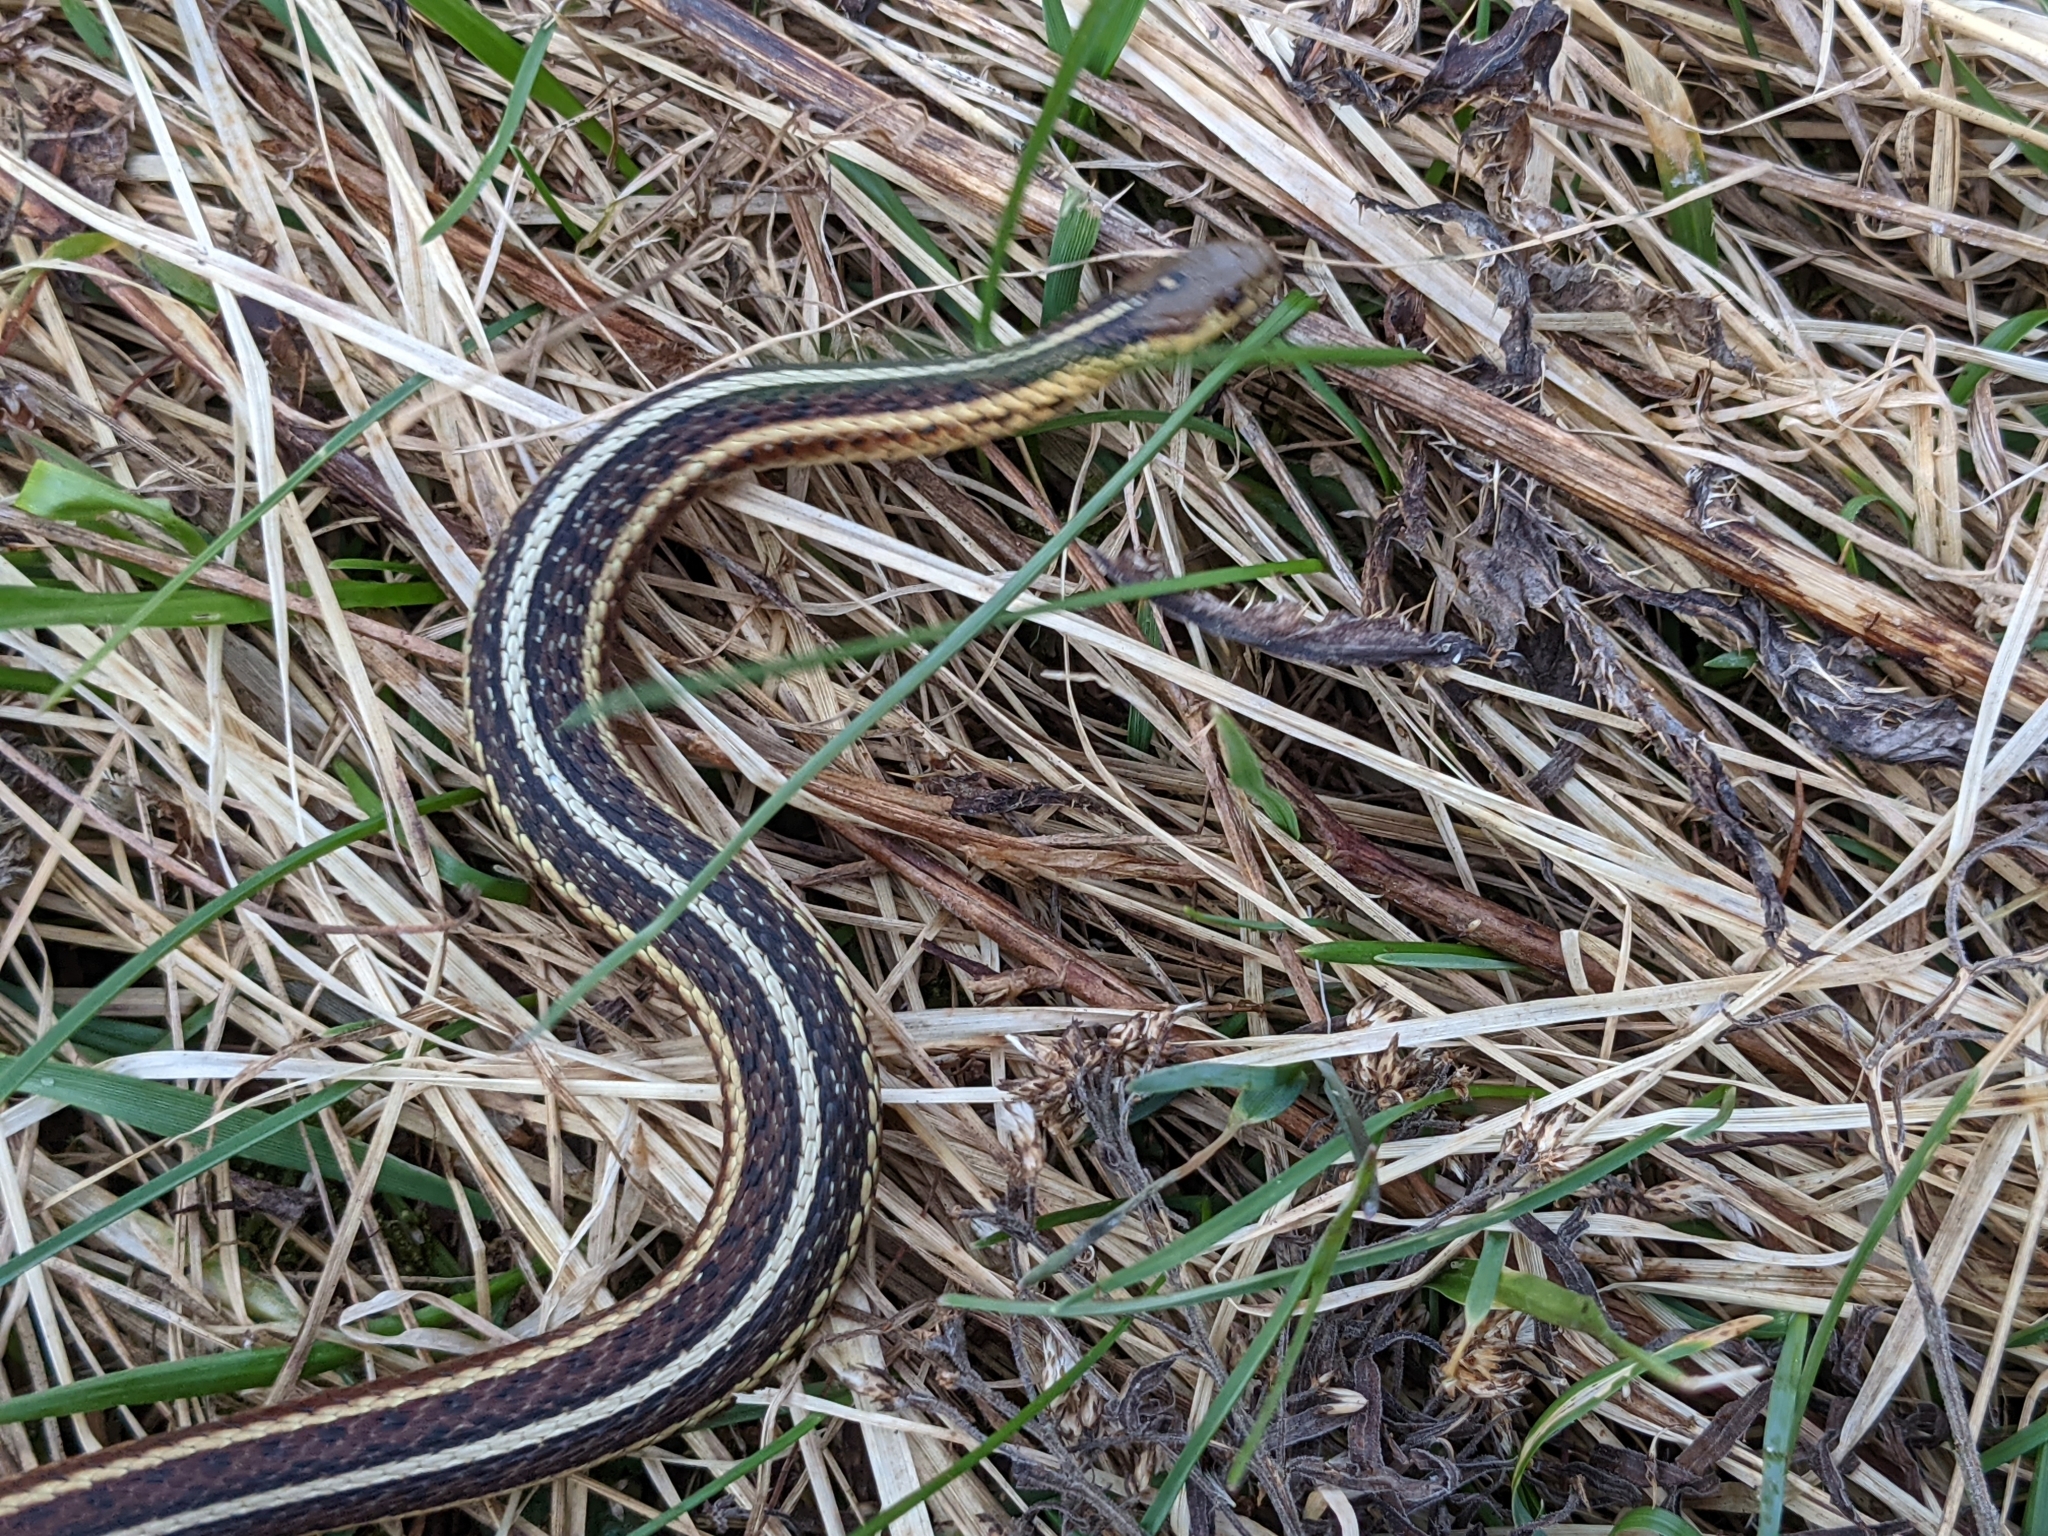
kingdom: Animalia
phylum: Chordata
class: Squamata
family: Colubridae
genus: Thamnophis
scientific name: Thamnophis butleri
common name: Butler's garter snake
